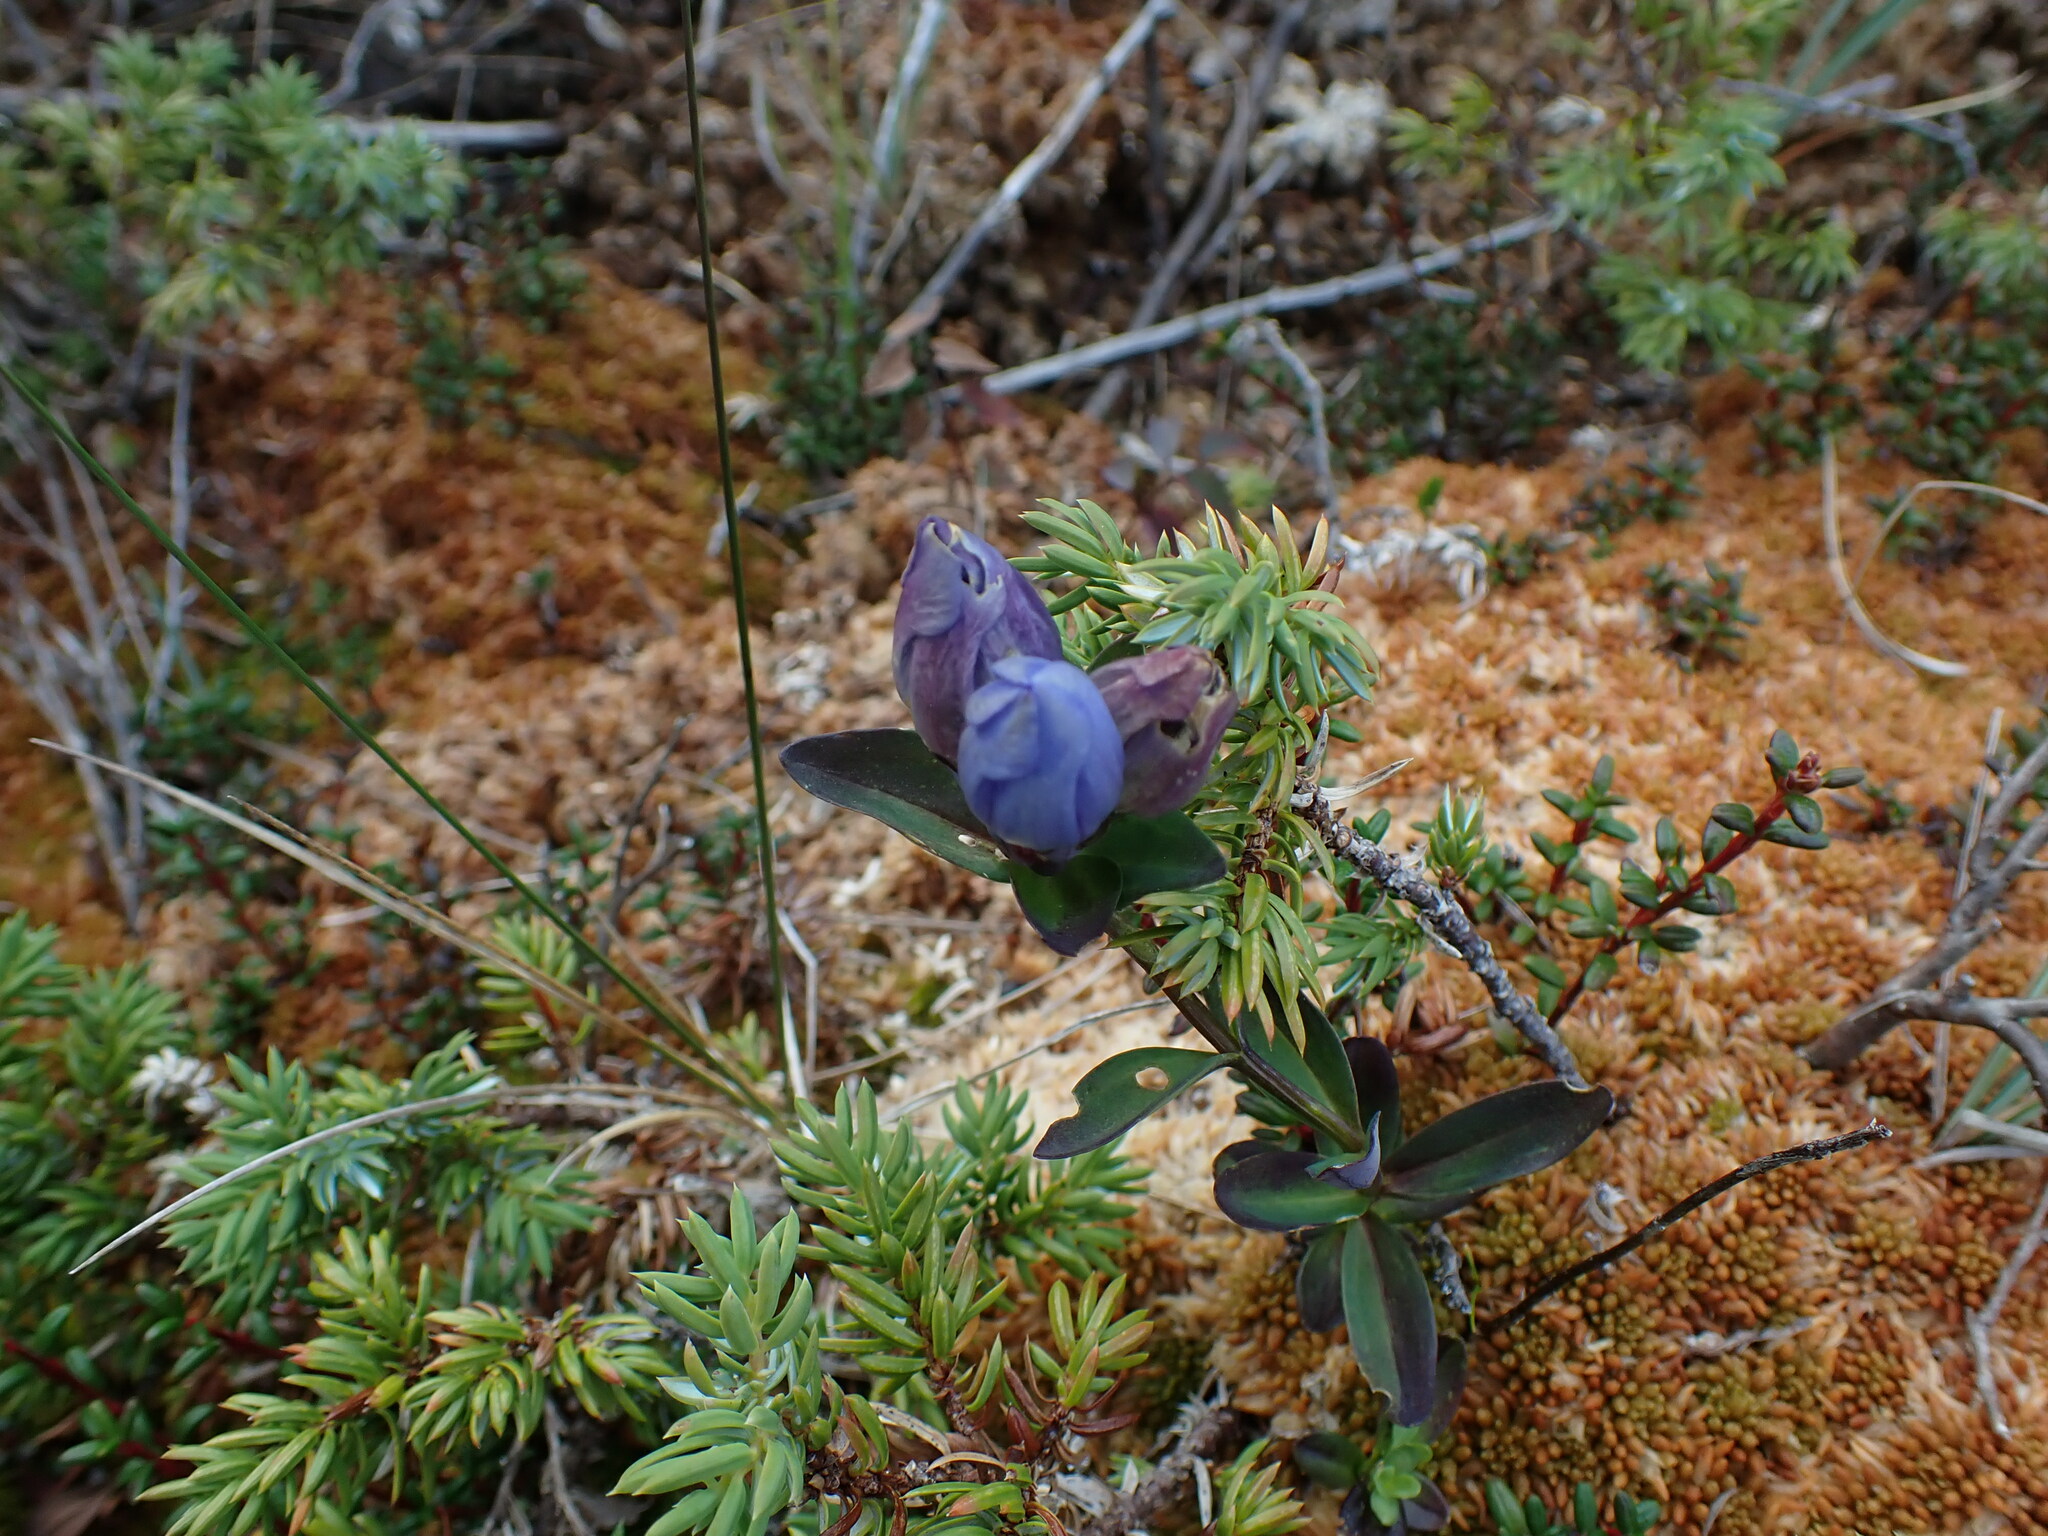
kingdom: Plantae
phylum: Tracheophyta
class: Magnoliopsida
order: Gentianales
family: Gentianaceae
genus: Gentiana
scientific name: Gentiana sceptrum
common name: Pacific gentian
